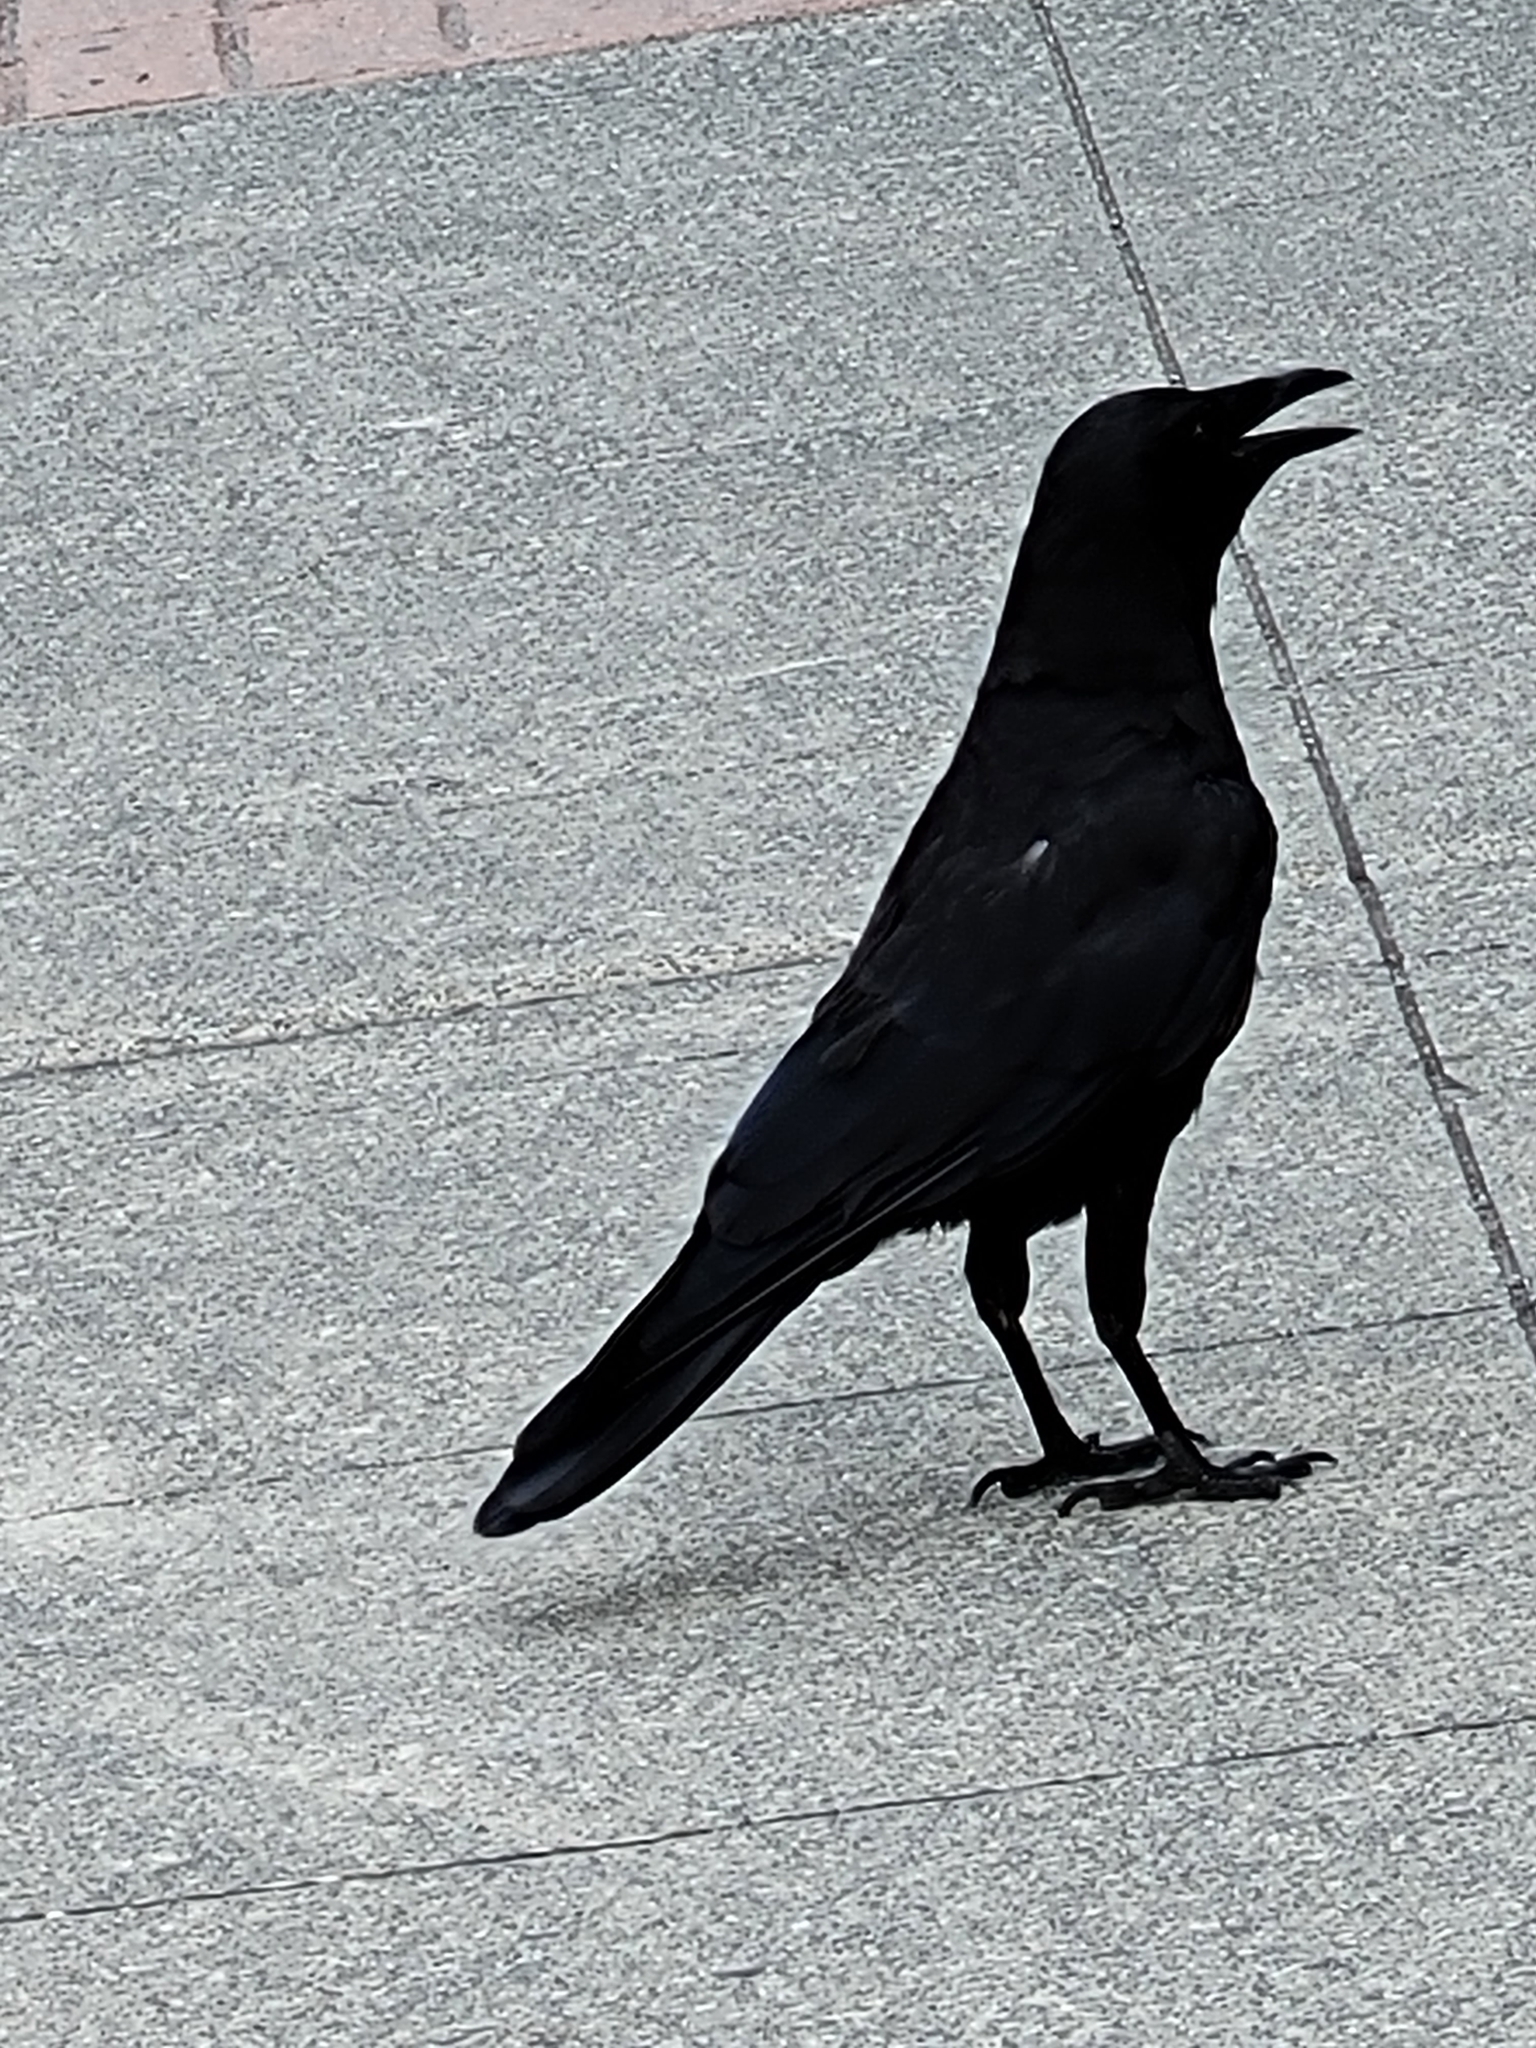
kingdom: Animalia
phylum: Chordata
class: Aves
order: Passeriformes
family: Corvidae
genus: Corvus
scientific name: Corvus brachyrhynchos
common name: American crow
